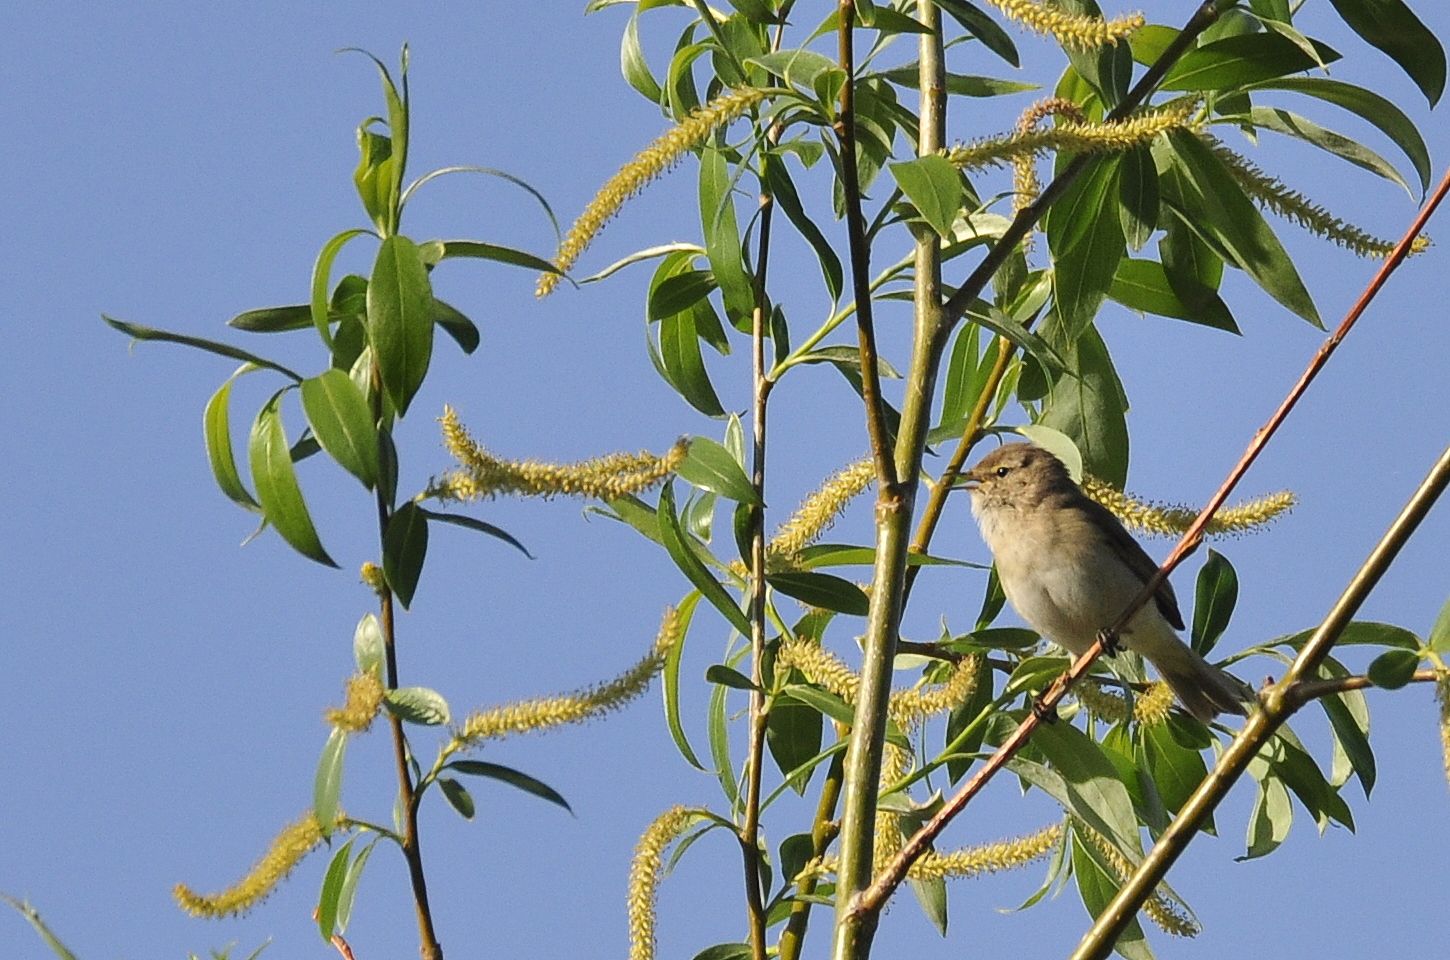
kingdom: Animalia
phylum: Chordata
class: Aves
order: Passeriformes
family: Phylloscopidae
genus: Phylloscopus
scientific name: Phylloscopus collybita
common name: Common chiffchaff
